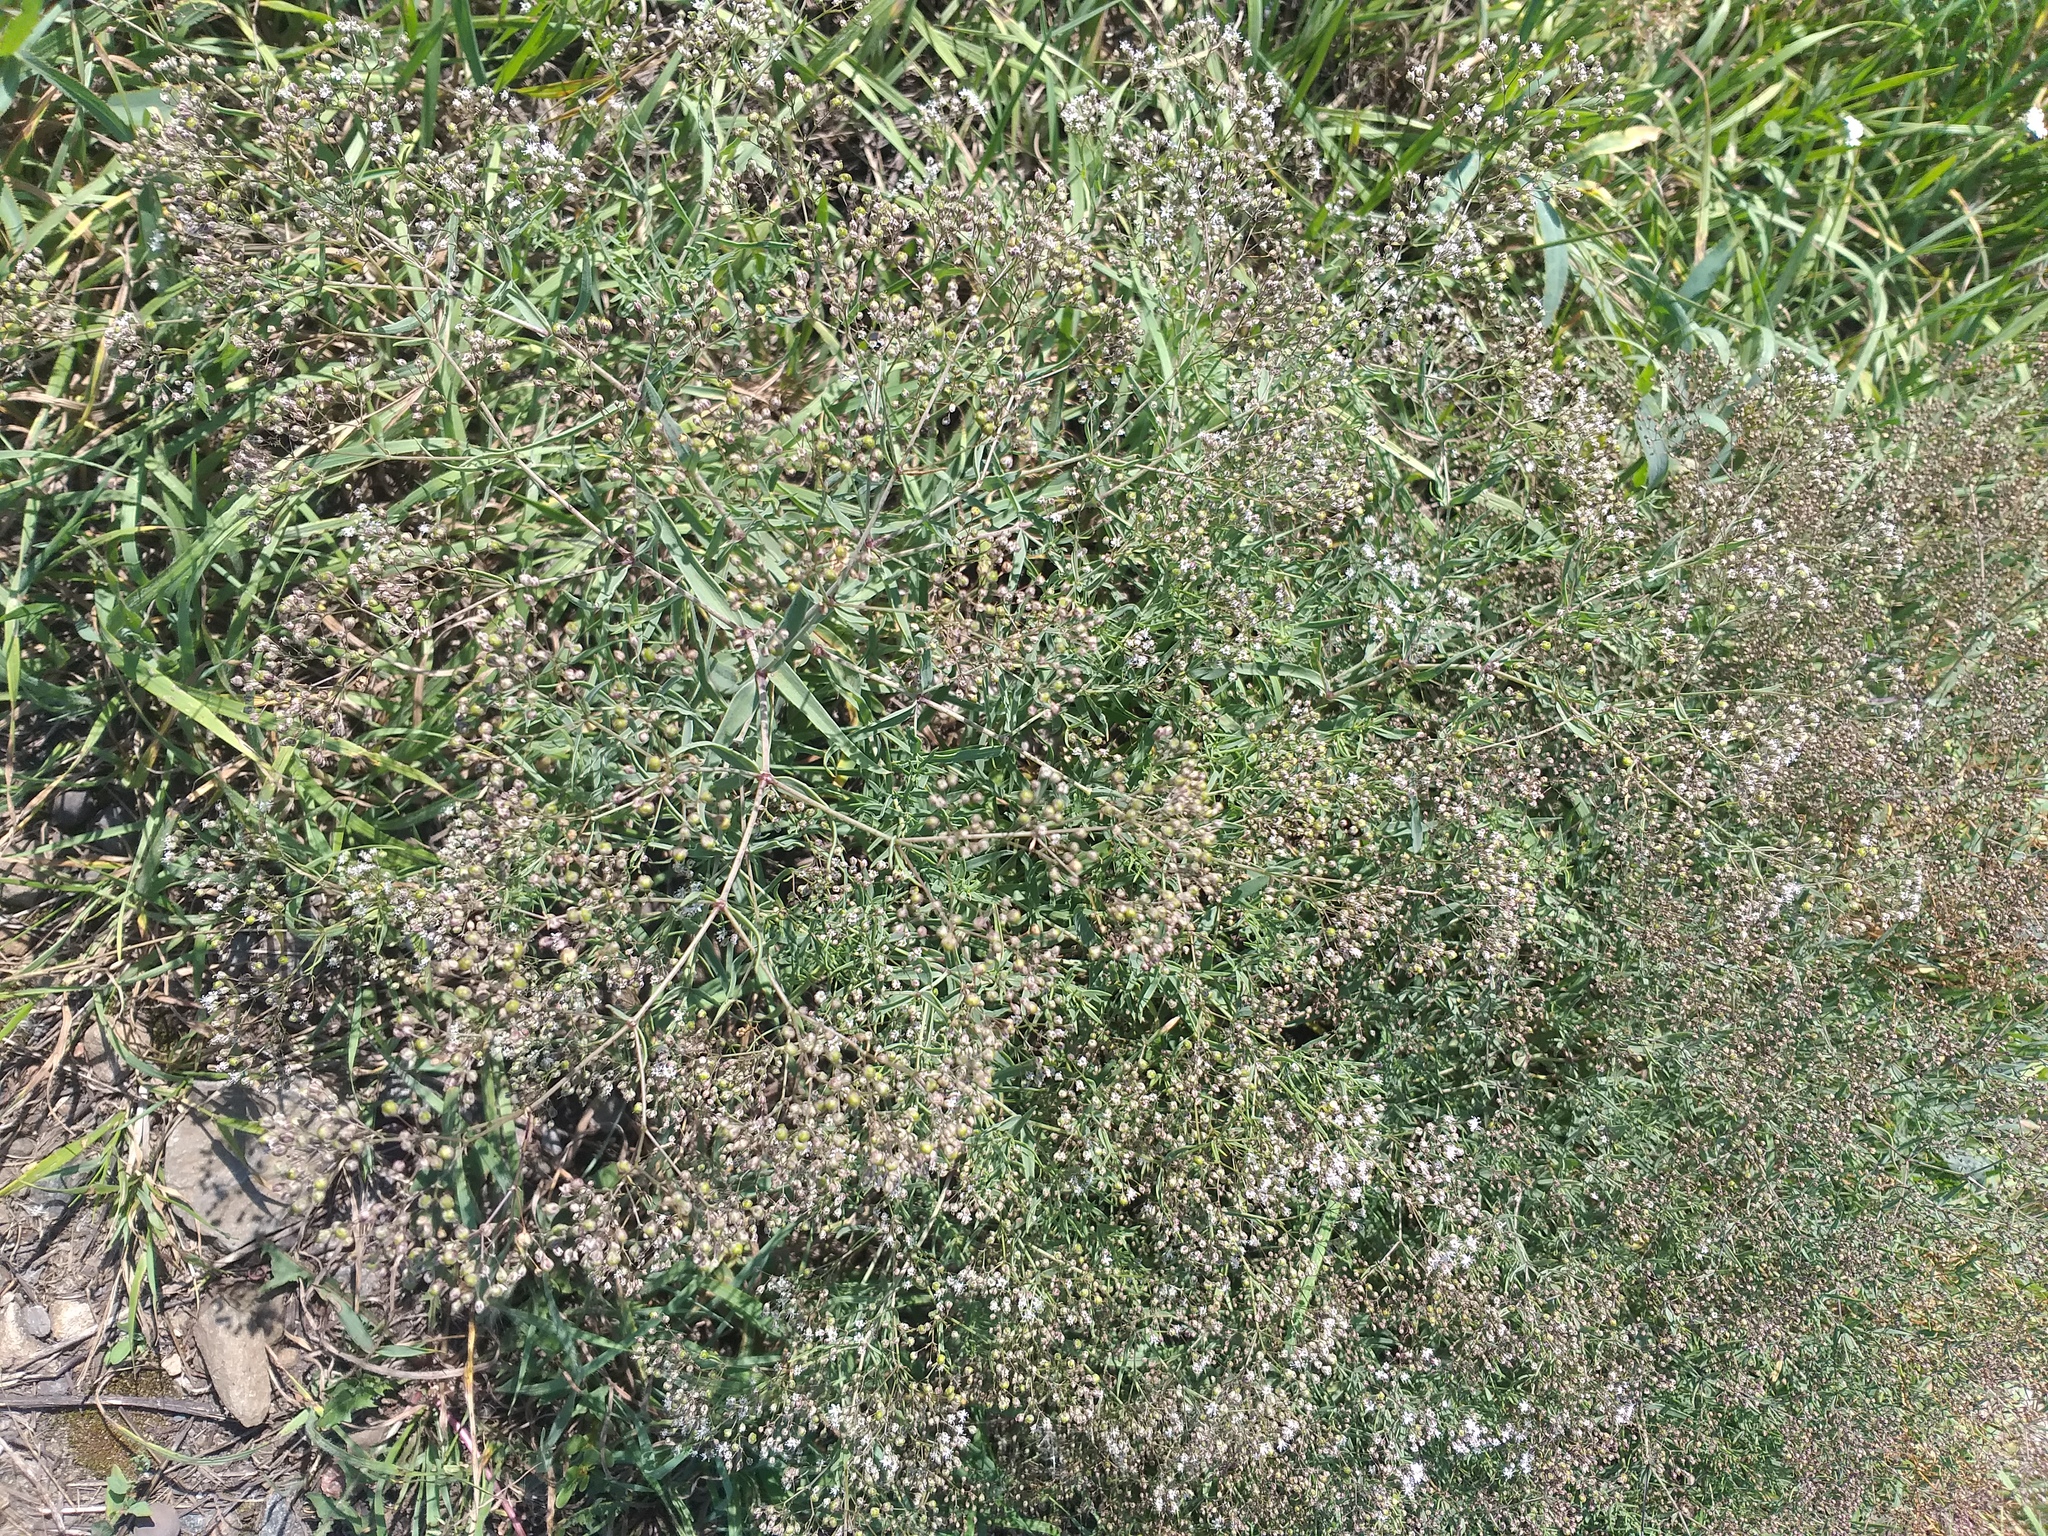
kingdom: Plantae
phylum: Tracheophyta
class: Magnoliopsida
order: Caryophyllales
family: Caryophyllaceae
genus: Gypsophila
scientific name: Gypsophila paniculata
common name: Baby's-breath
